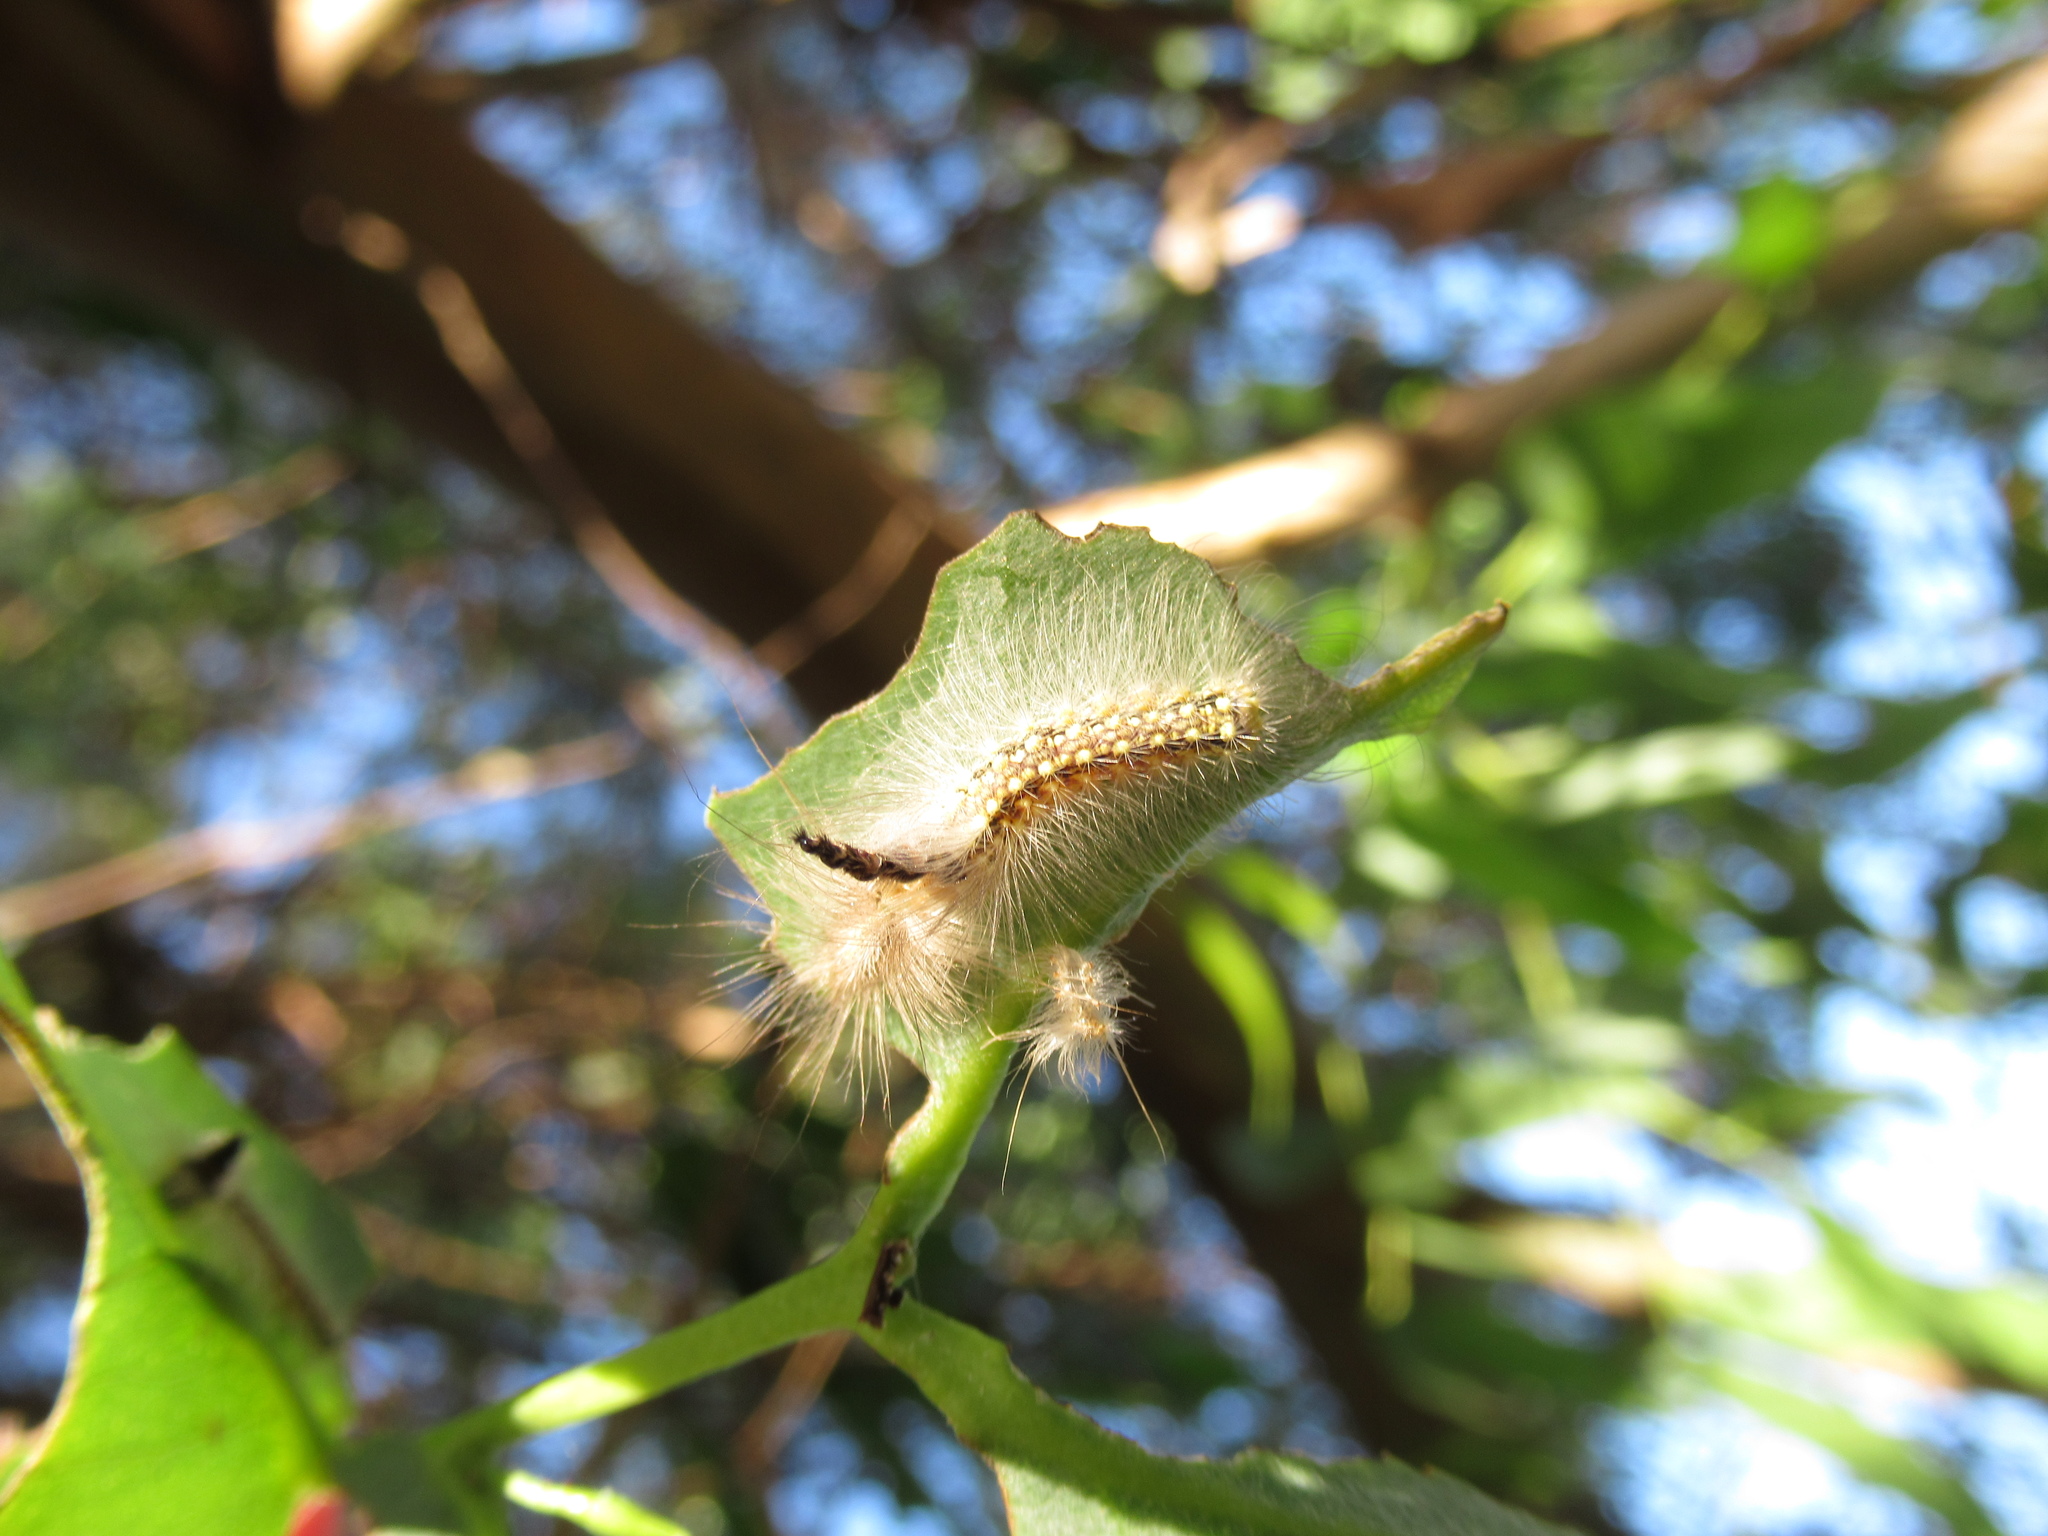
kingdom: Animalia
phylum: Arthropoda
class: Insecta
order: Lepidoptera
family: Nolidae
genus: Uraba
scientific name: Uraba lugens
